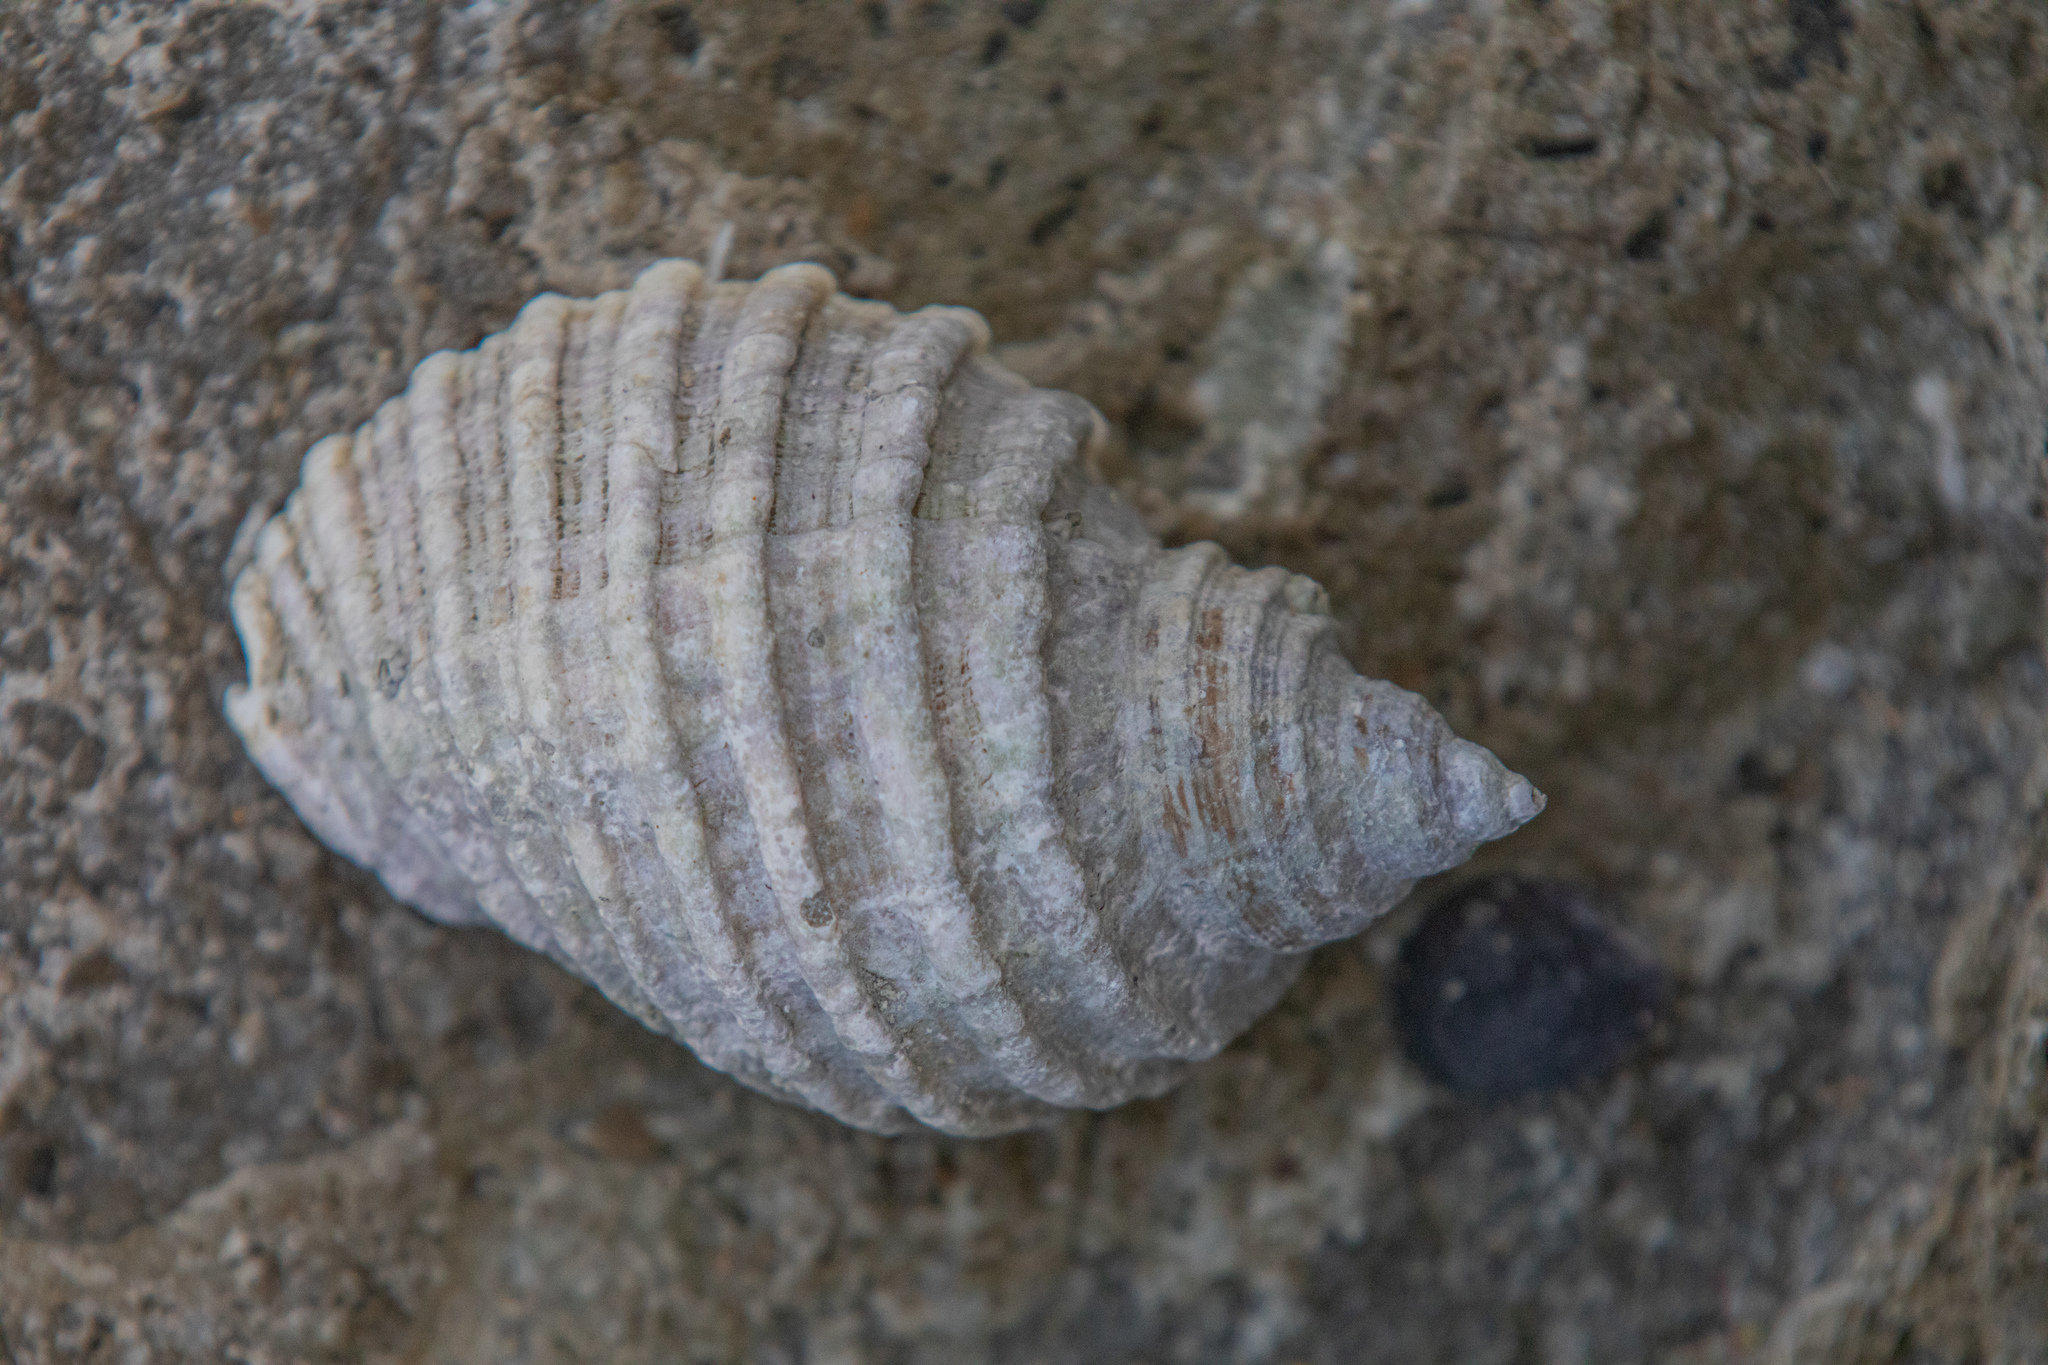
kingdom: Animalia
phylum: Mollusca
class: Gastropoda
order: Neogastropoda
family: Muricidae
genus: Dicathais
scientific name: Dicathais orbita
